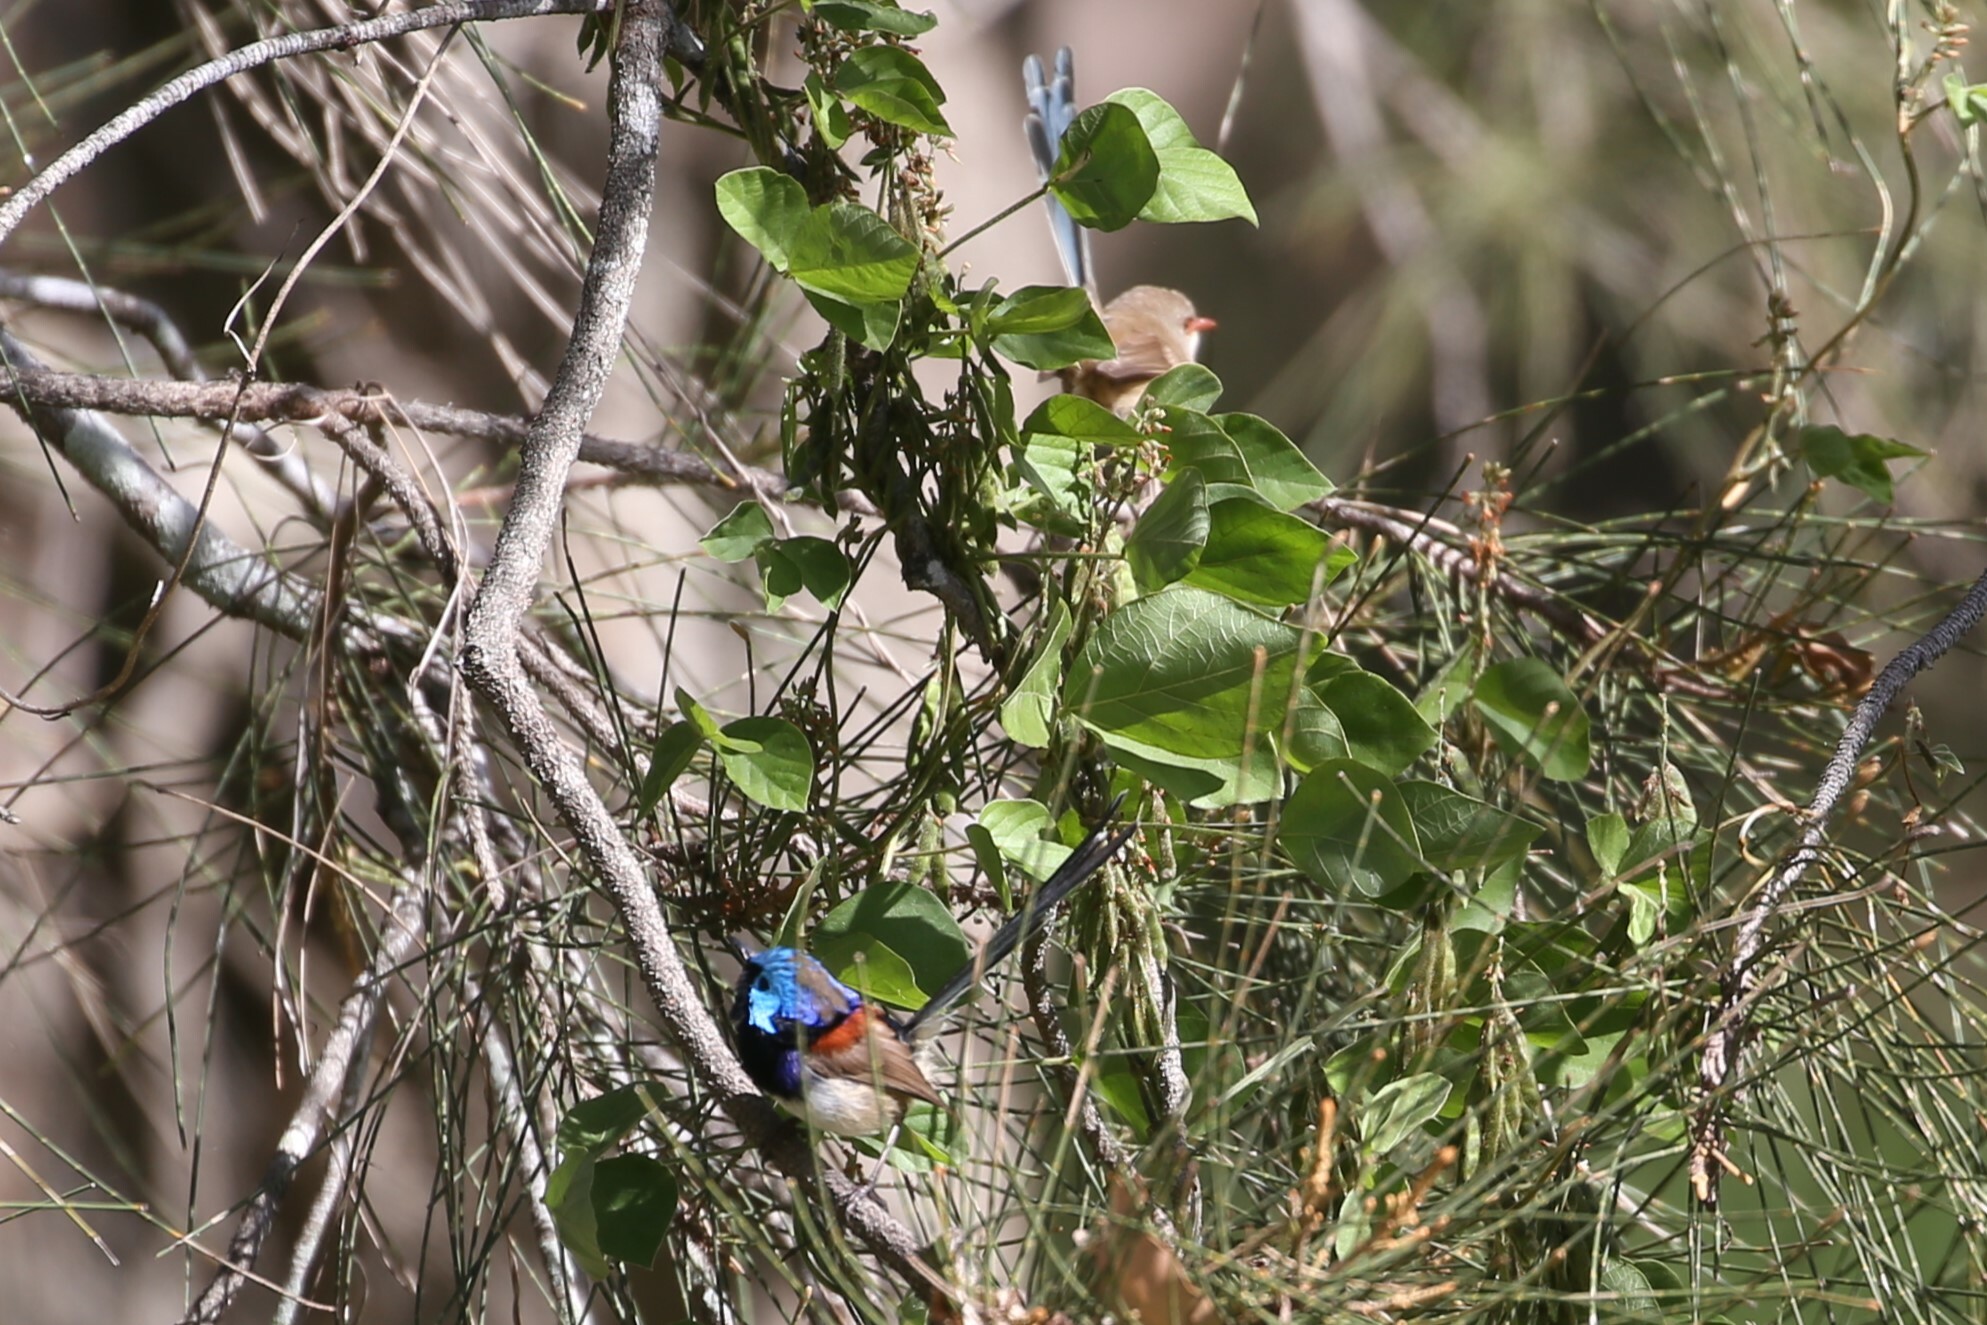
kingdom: Animalia
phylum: Chordata
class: Aves
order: Passeriformes
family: Maluridae
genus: Malurus
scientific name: Malurus lamberti
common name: Variegated fairywren
